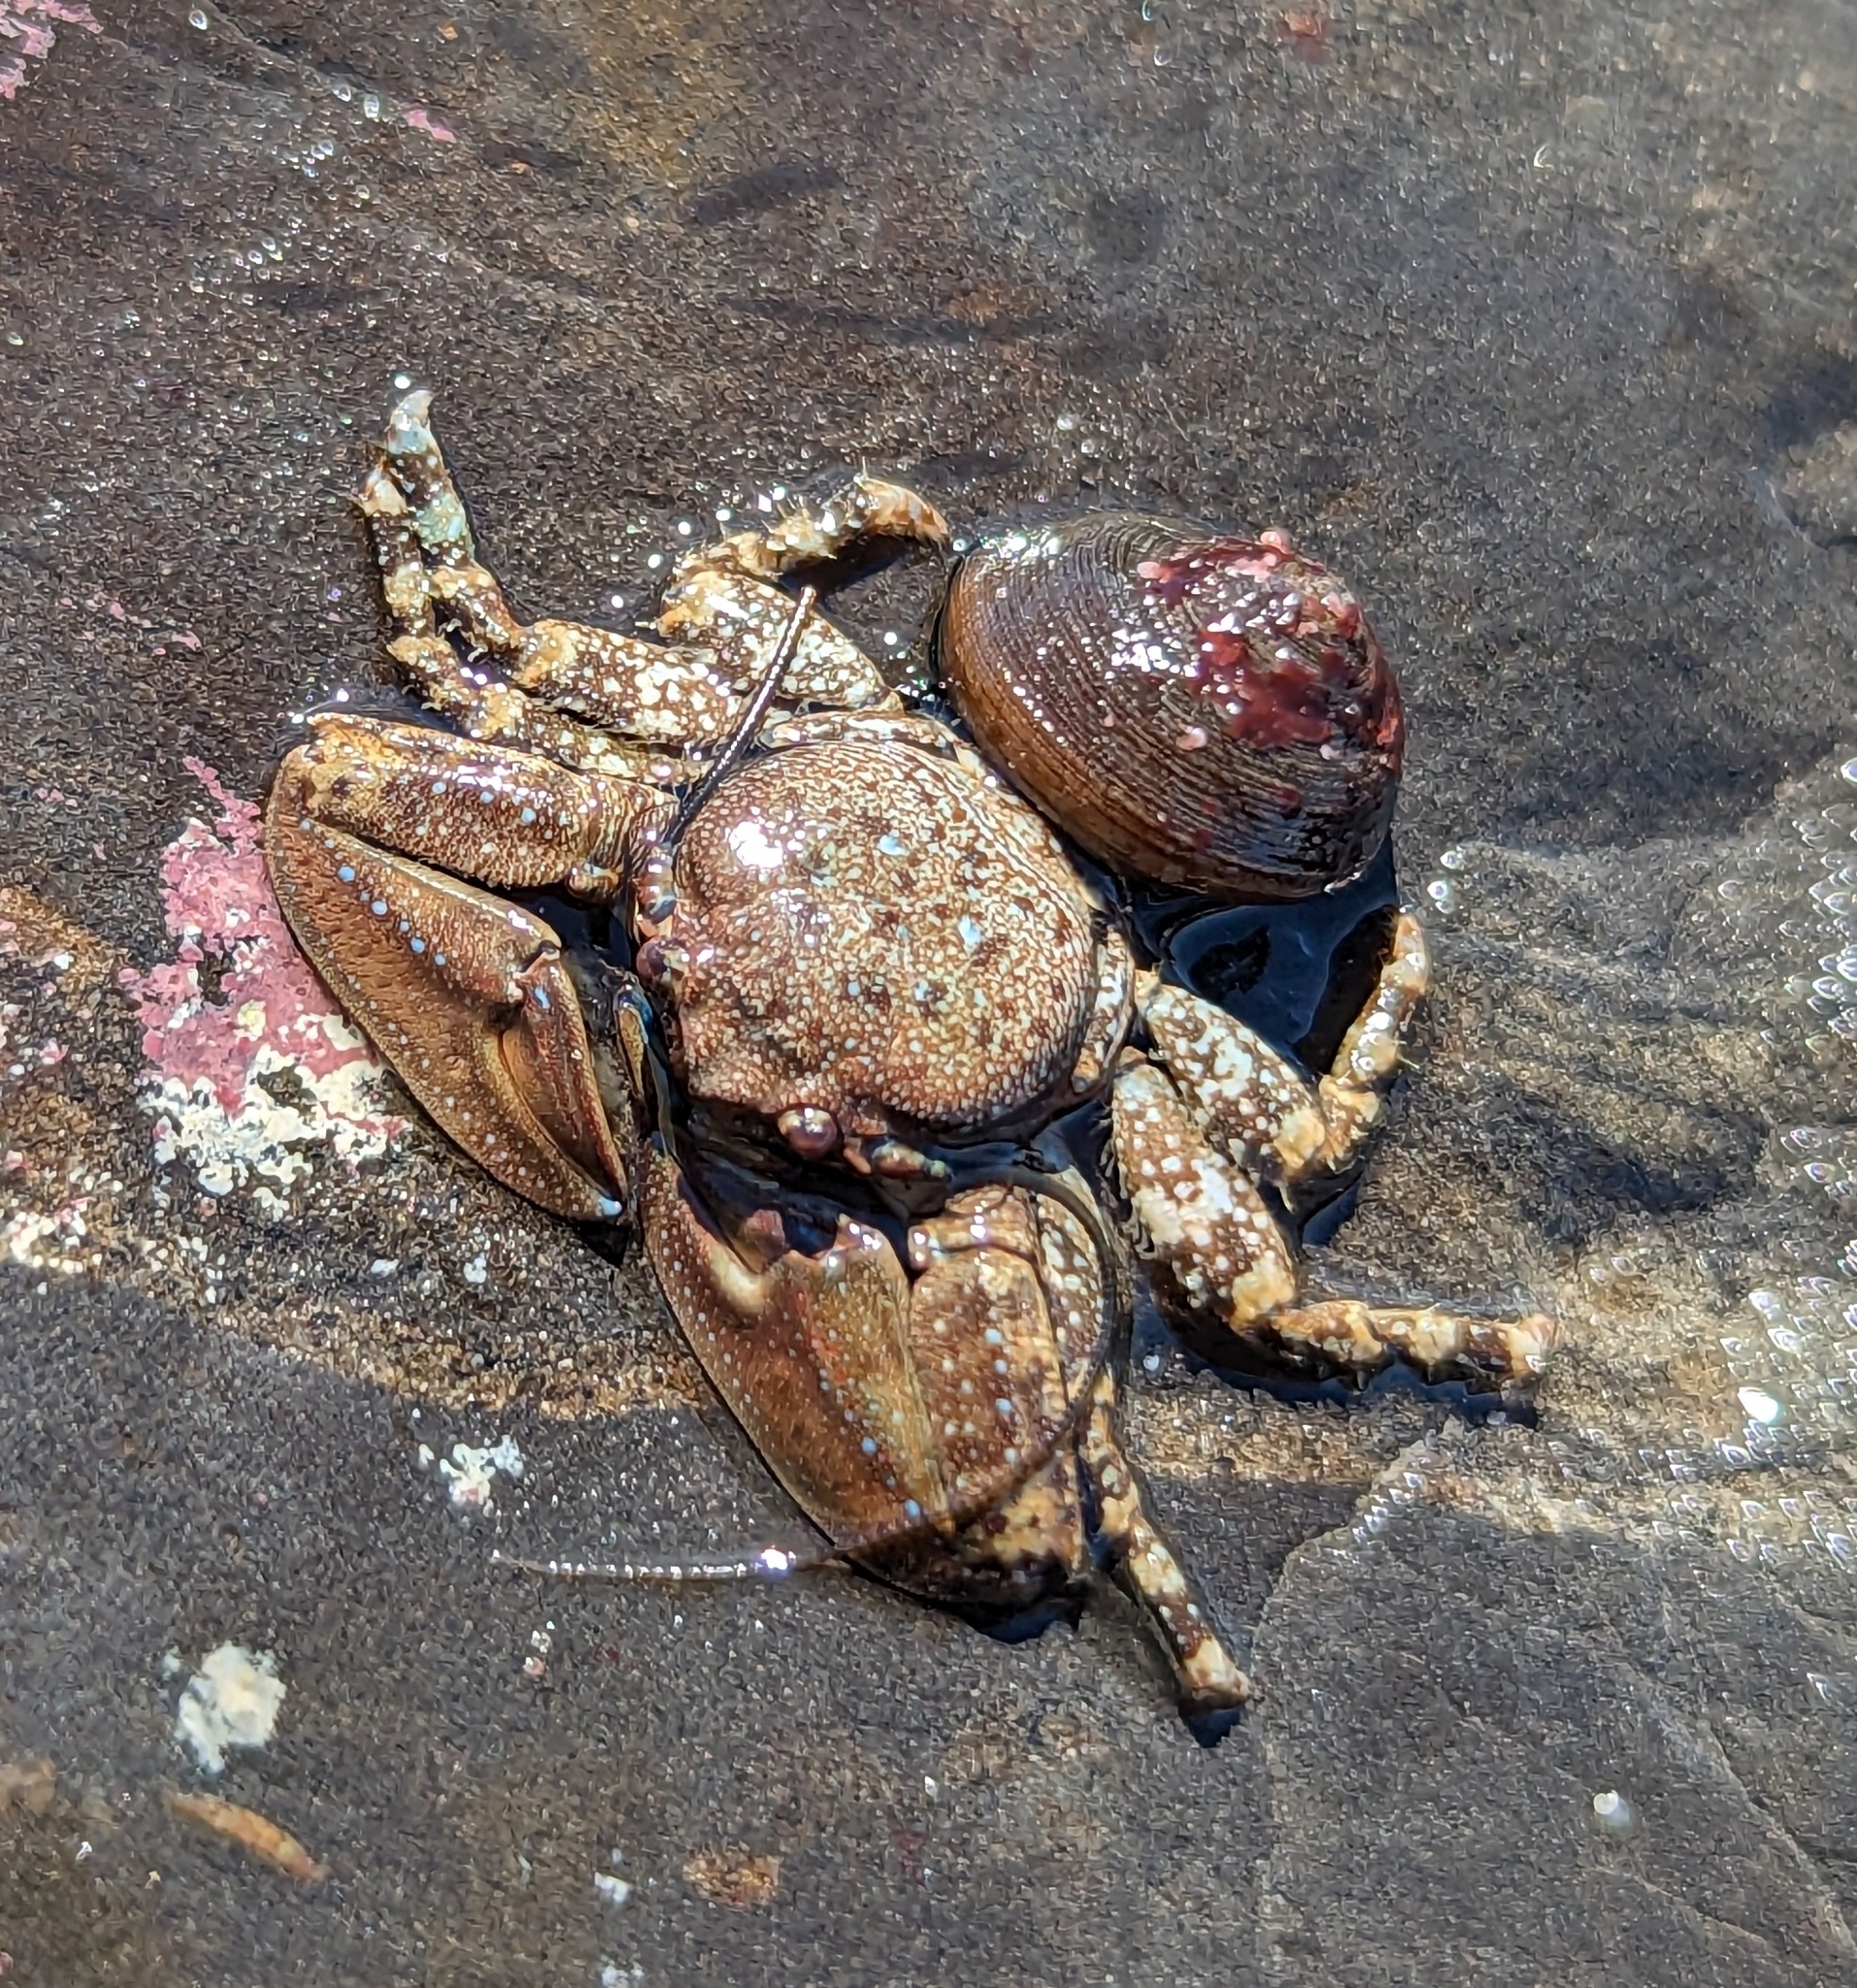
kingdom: Animalia
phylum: Arthropoda
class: Malacostraca
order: Decapoda
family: Porcellanidae
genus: Petrolisthes
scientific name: Petrolisthes manimaculis
